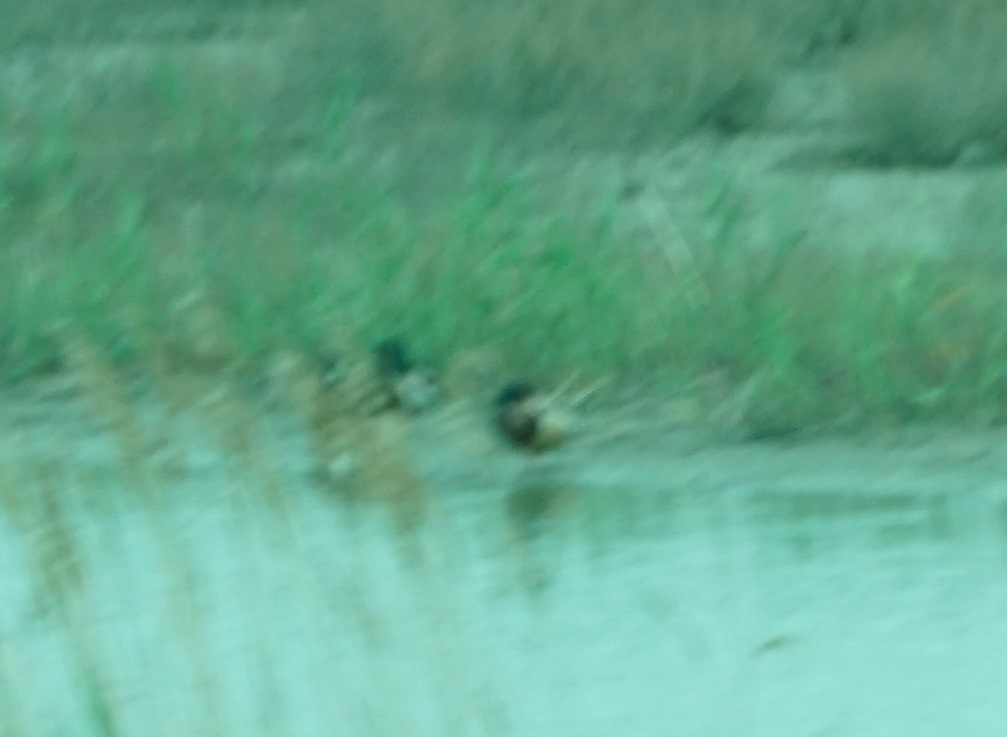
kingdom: Animalia
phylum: Chordata
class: Aves
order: Anseriformes
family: Anatidae
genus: Anas
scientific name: Anas platyrhynchos
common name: Mallard
